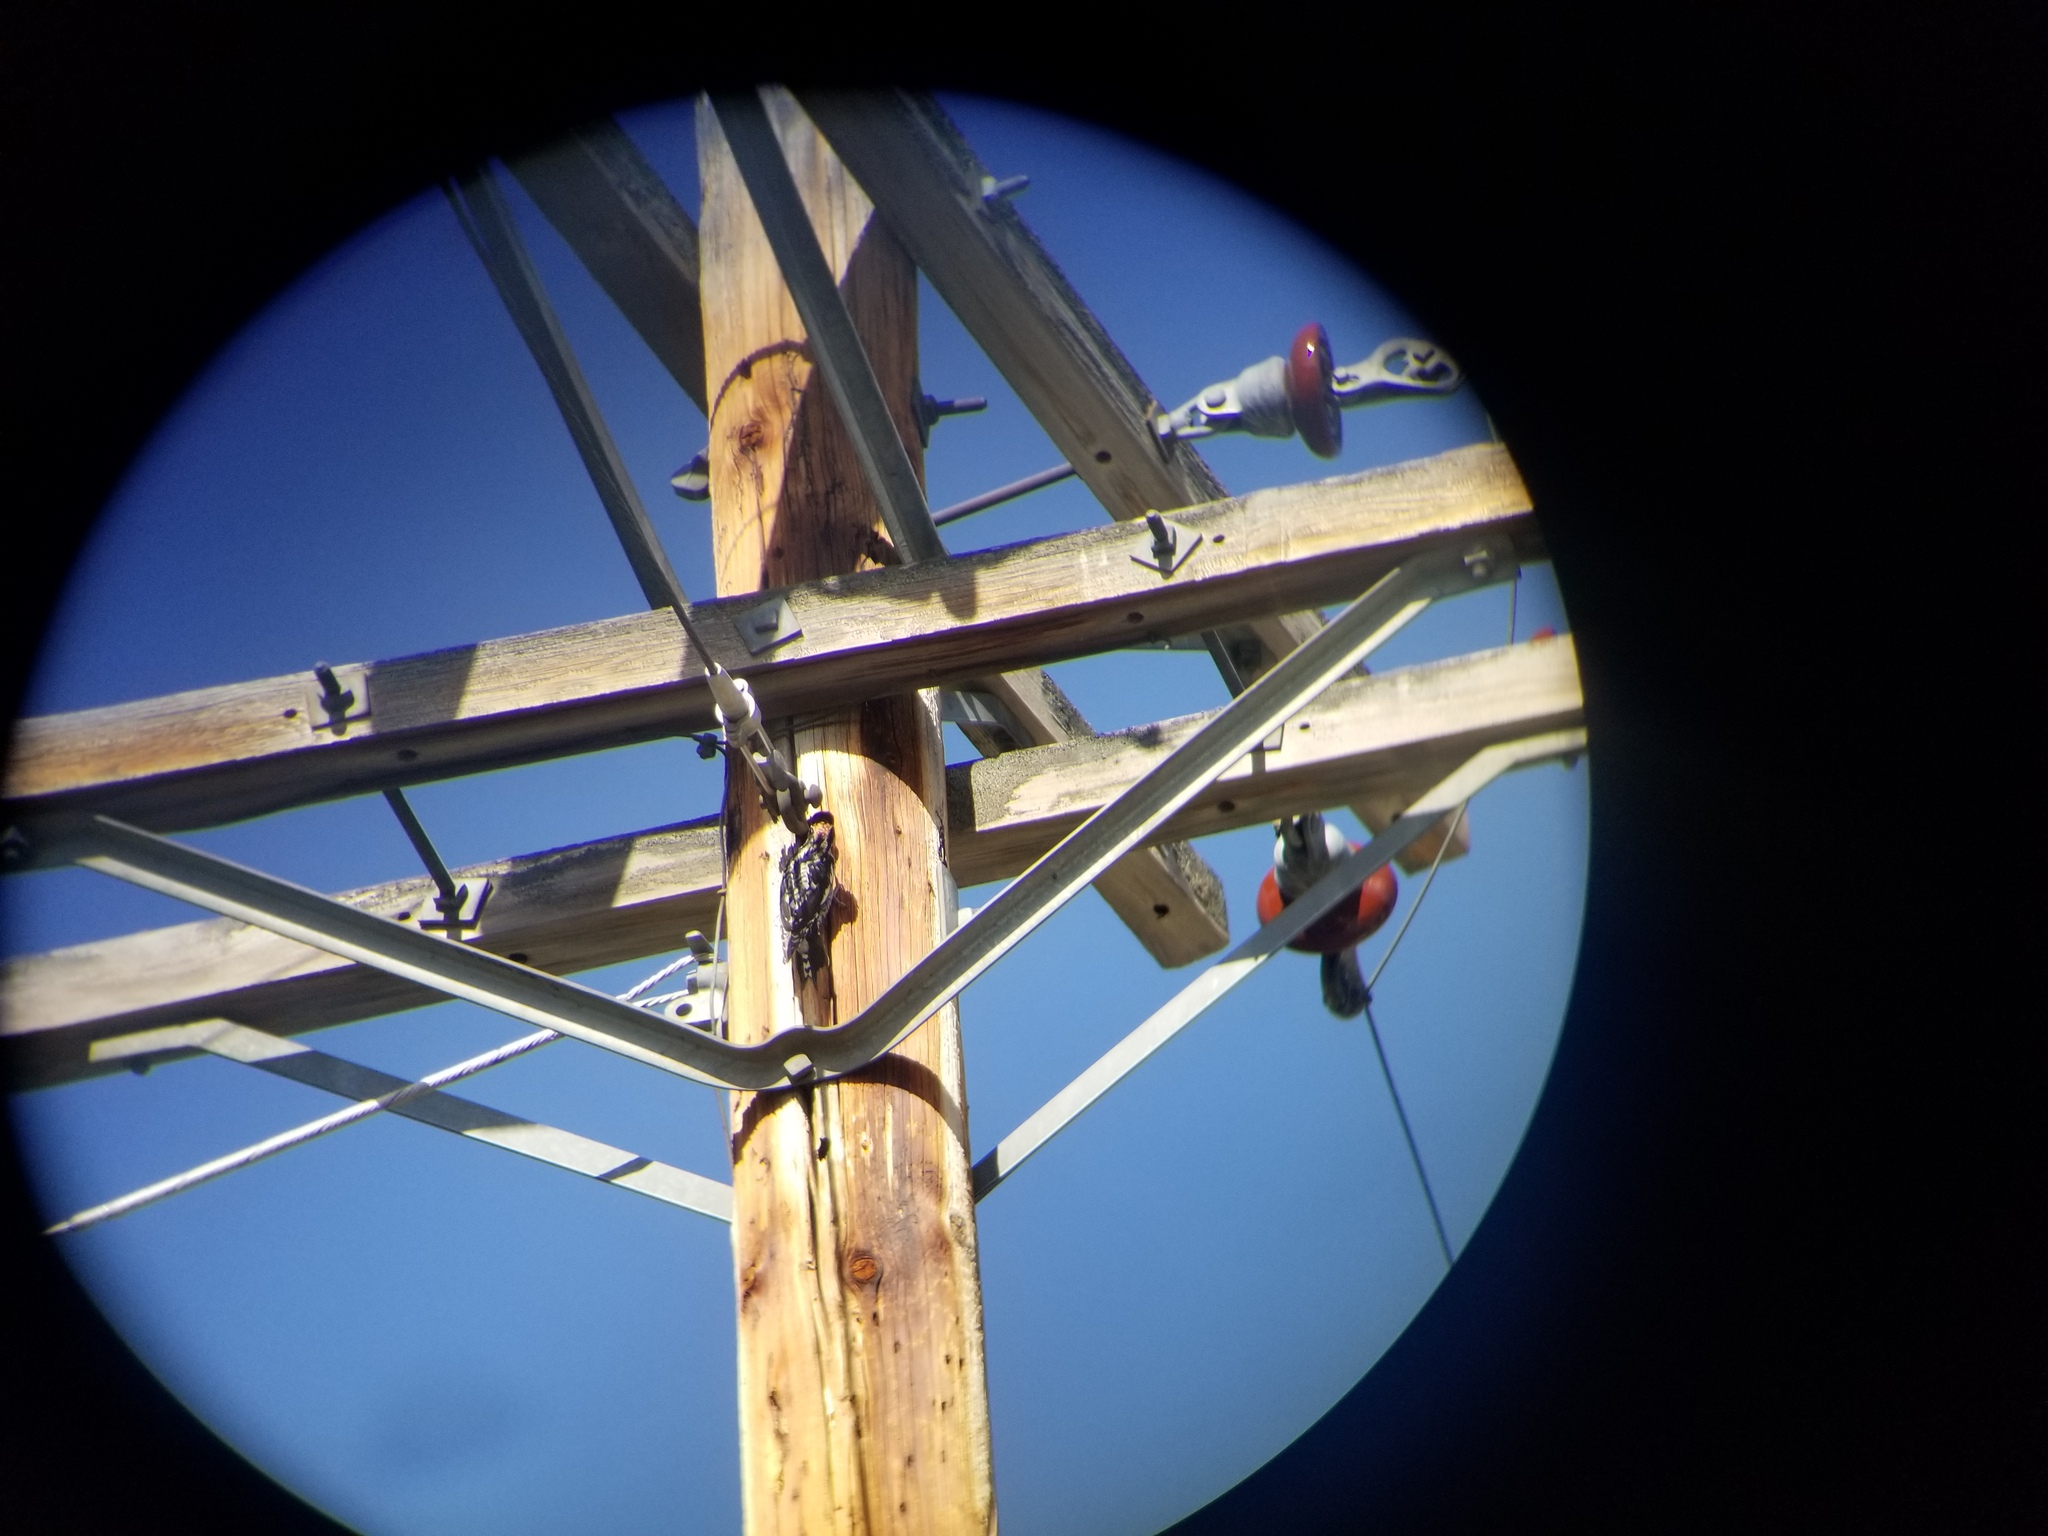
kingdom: Animalia
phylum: Chordata
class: Aves
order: Piciformes
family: Picidae
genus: Sphyrapicus
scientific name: Sphyrapicus nuchalis
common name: Red-naped sapsucker
